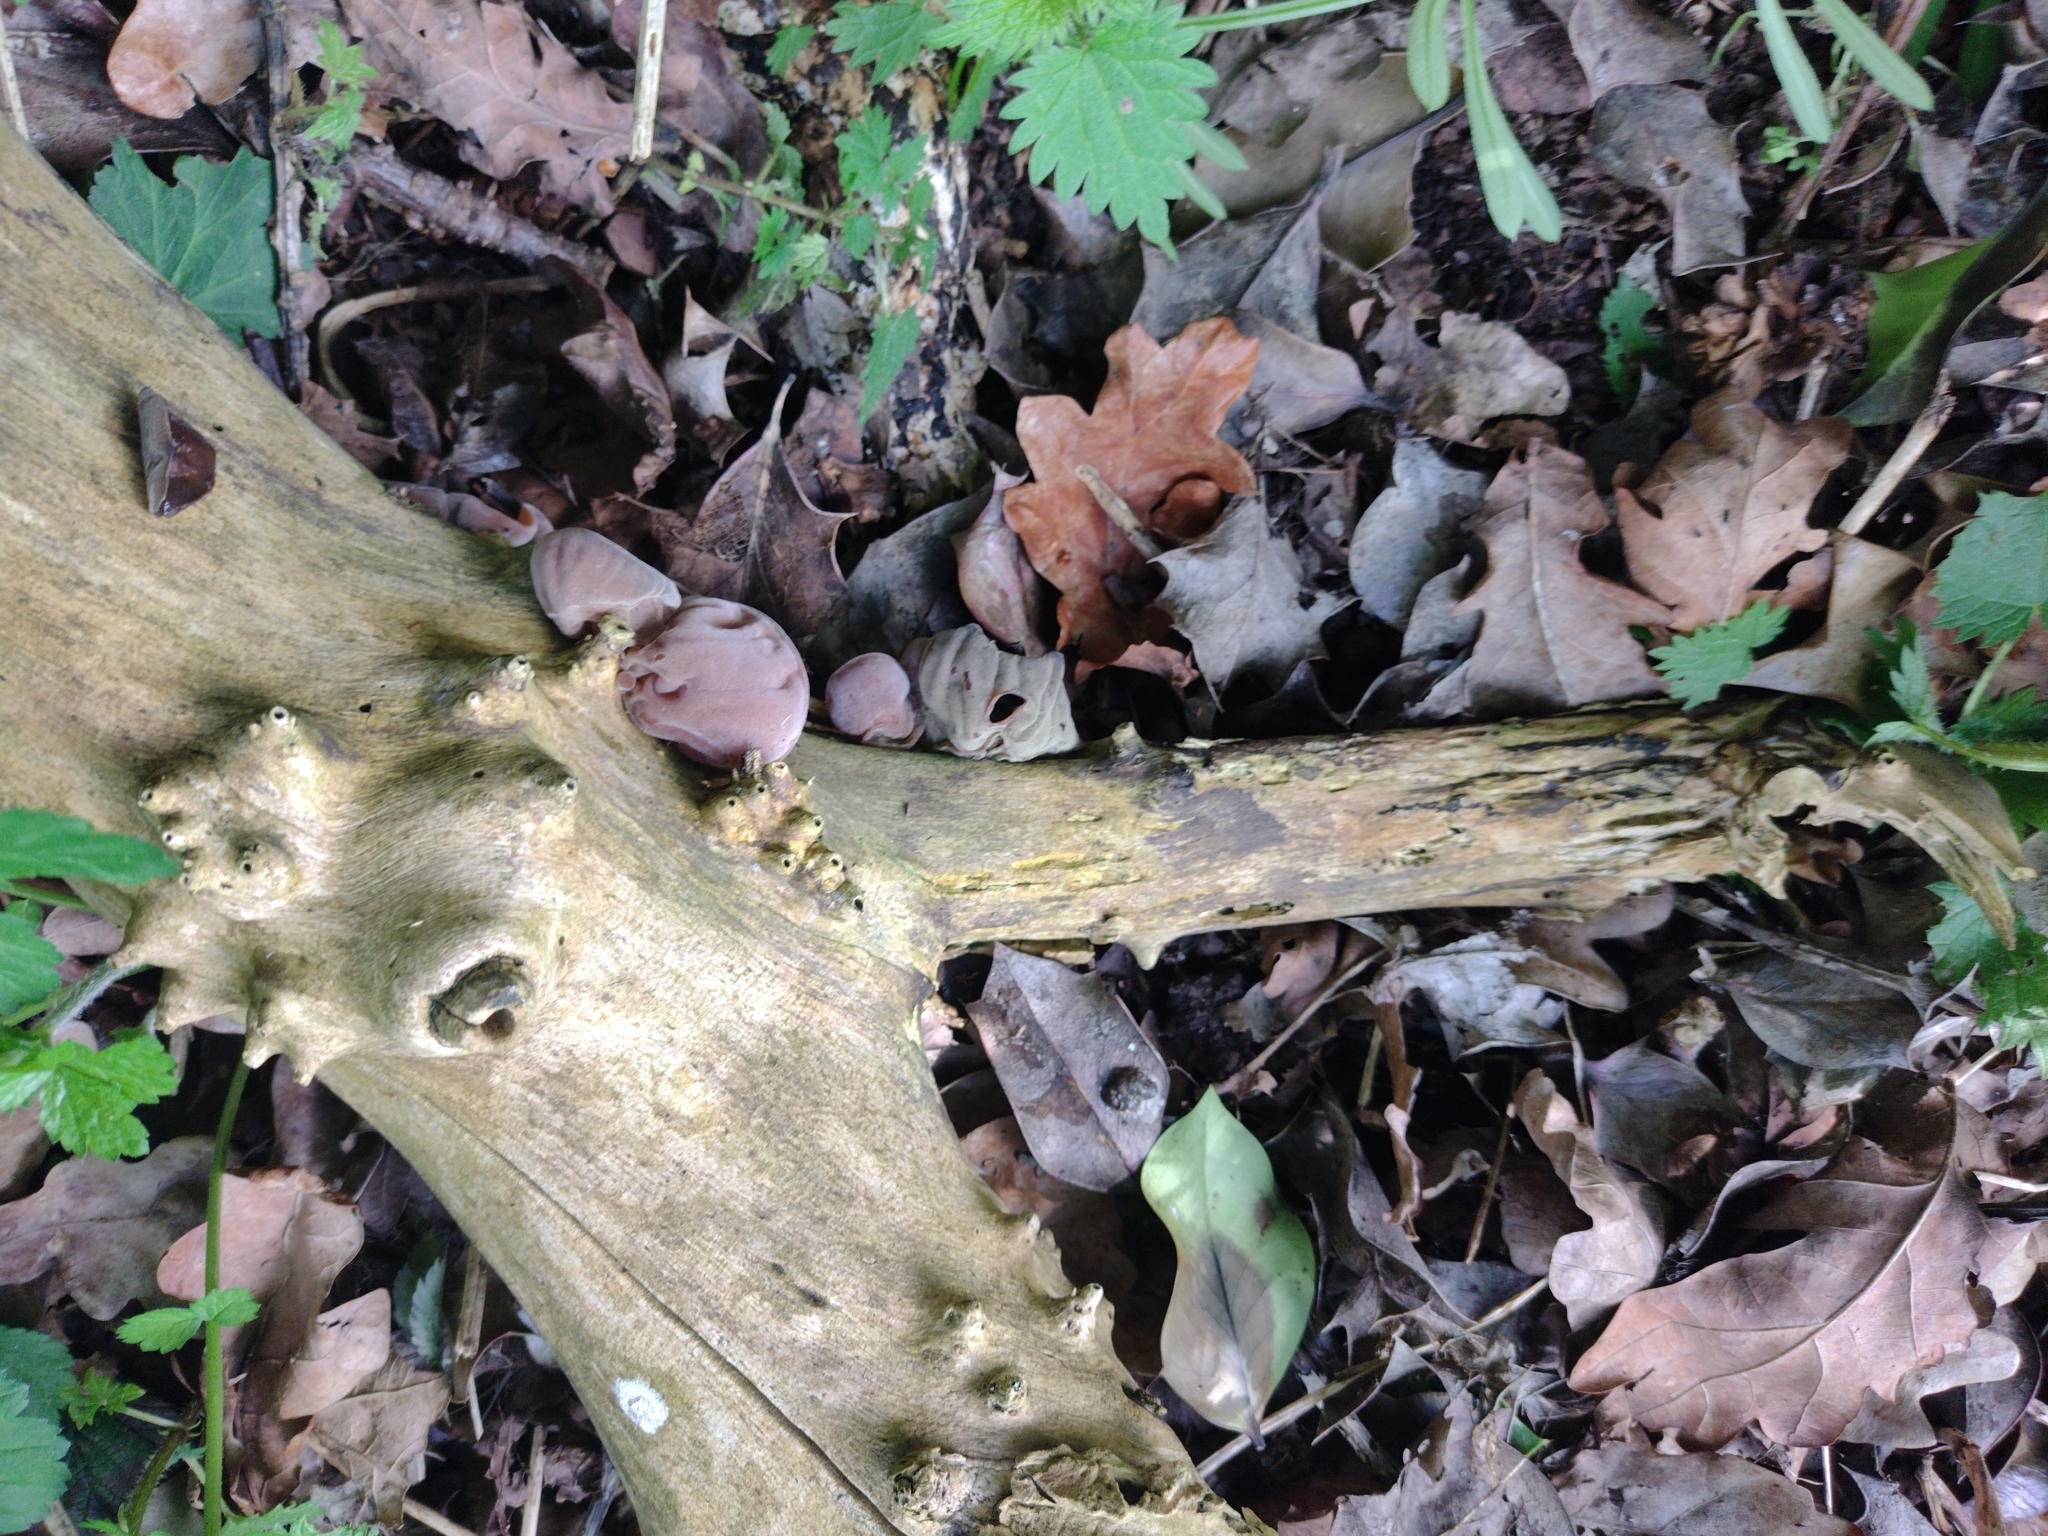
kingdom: Fungi
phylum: Basidiomycota
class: Agaricomycetes
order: Auriculariales
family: Auriculariaceae
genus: Auricularia
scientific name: Auricularia auricula-judae
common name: Jelly ear
